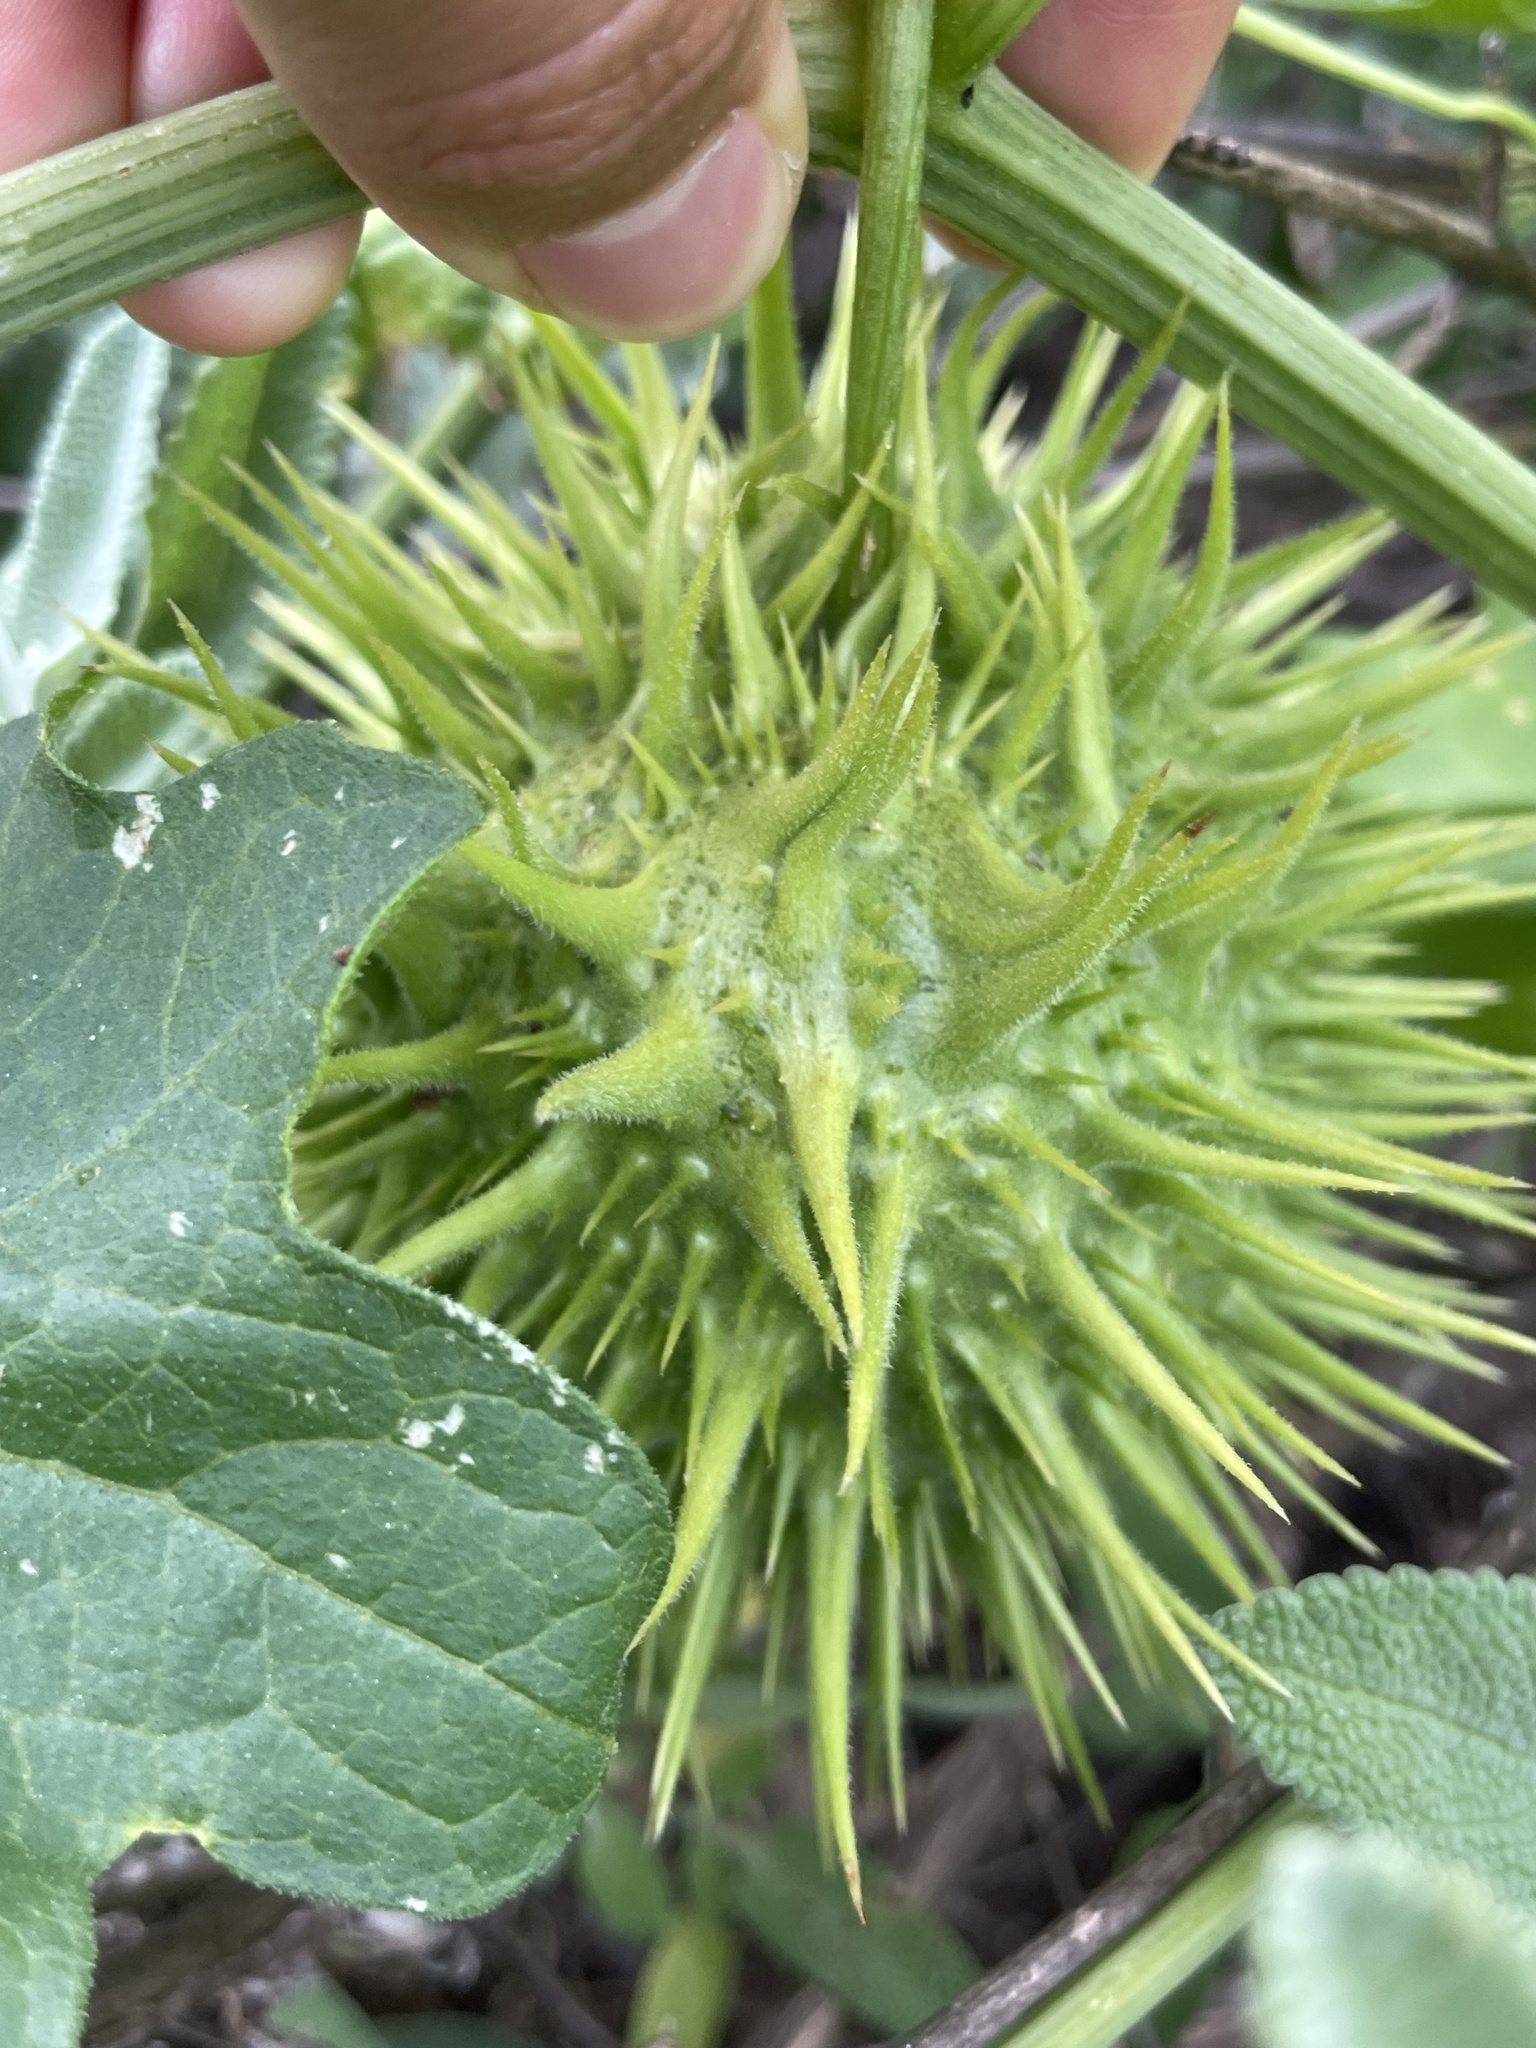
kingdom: Plantae
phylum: Tracheophyta
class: Magnoliopsida
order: Cucurbitales
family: Cucurbitaceae
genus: Marah
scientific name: Marah macrocarpa
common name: Cucamonga manroot
